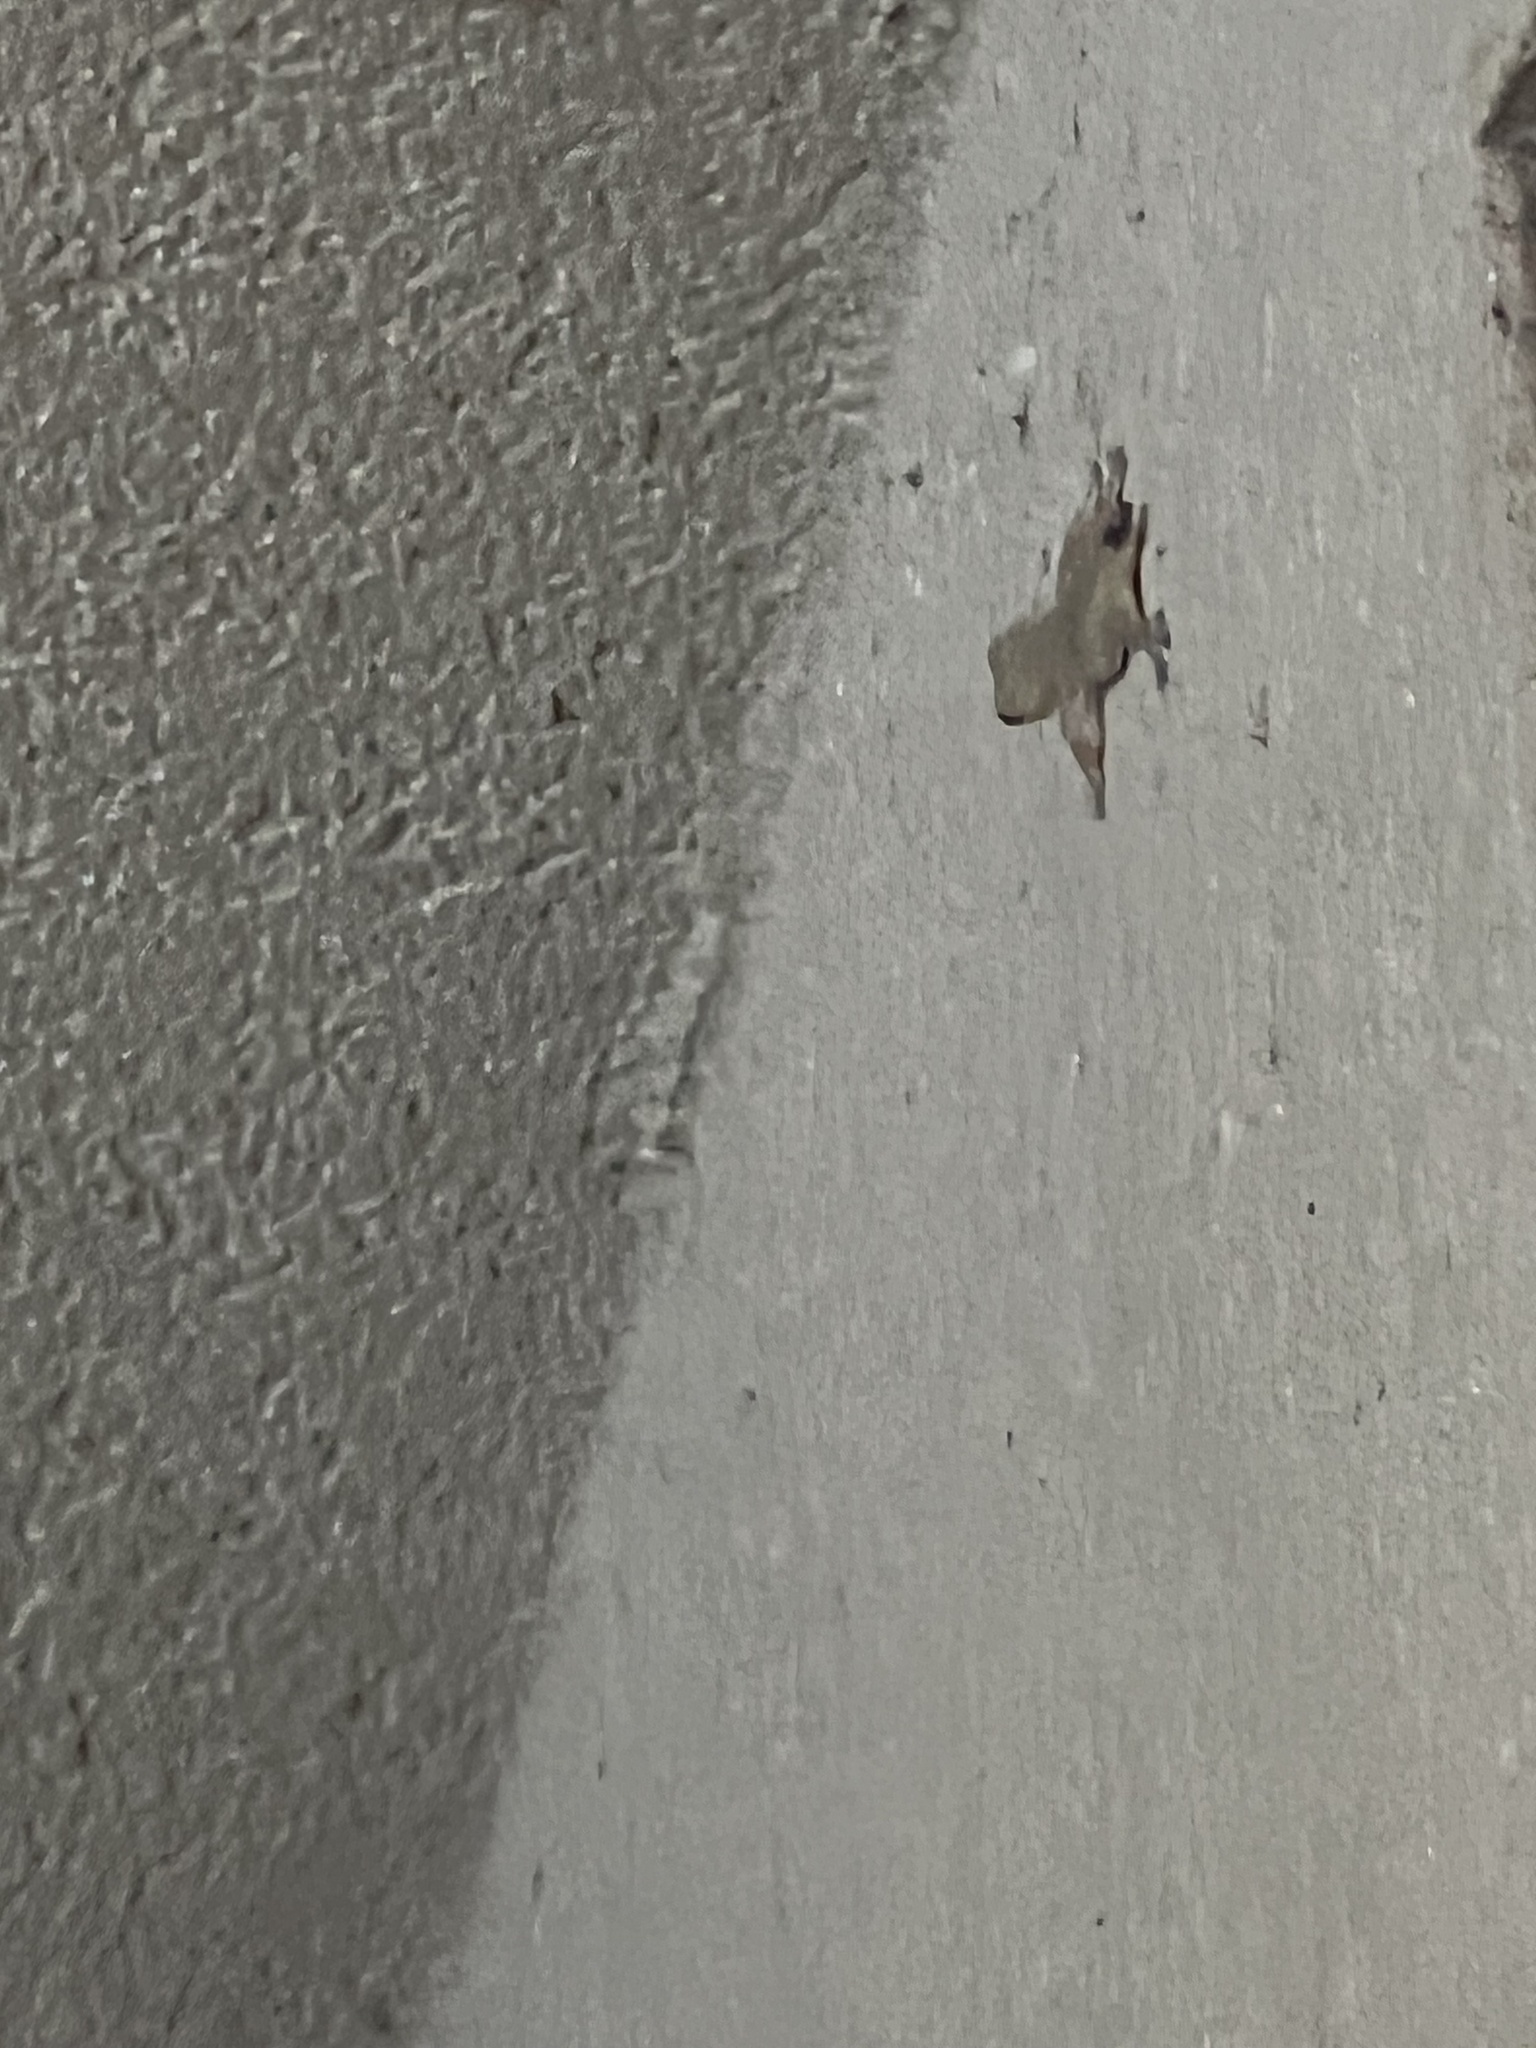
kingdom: Animalia
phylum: Chordata
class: Squamata
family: Gekkonidae
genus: Hemidactylus
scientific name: Hemidactylus frenatus
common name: Common house gecko
